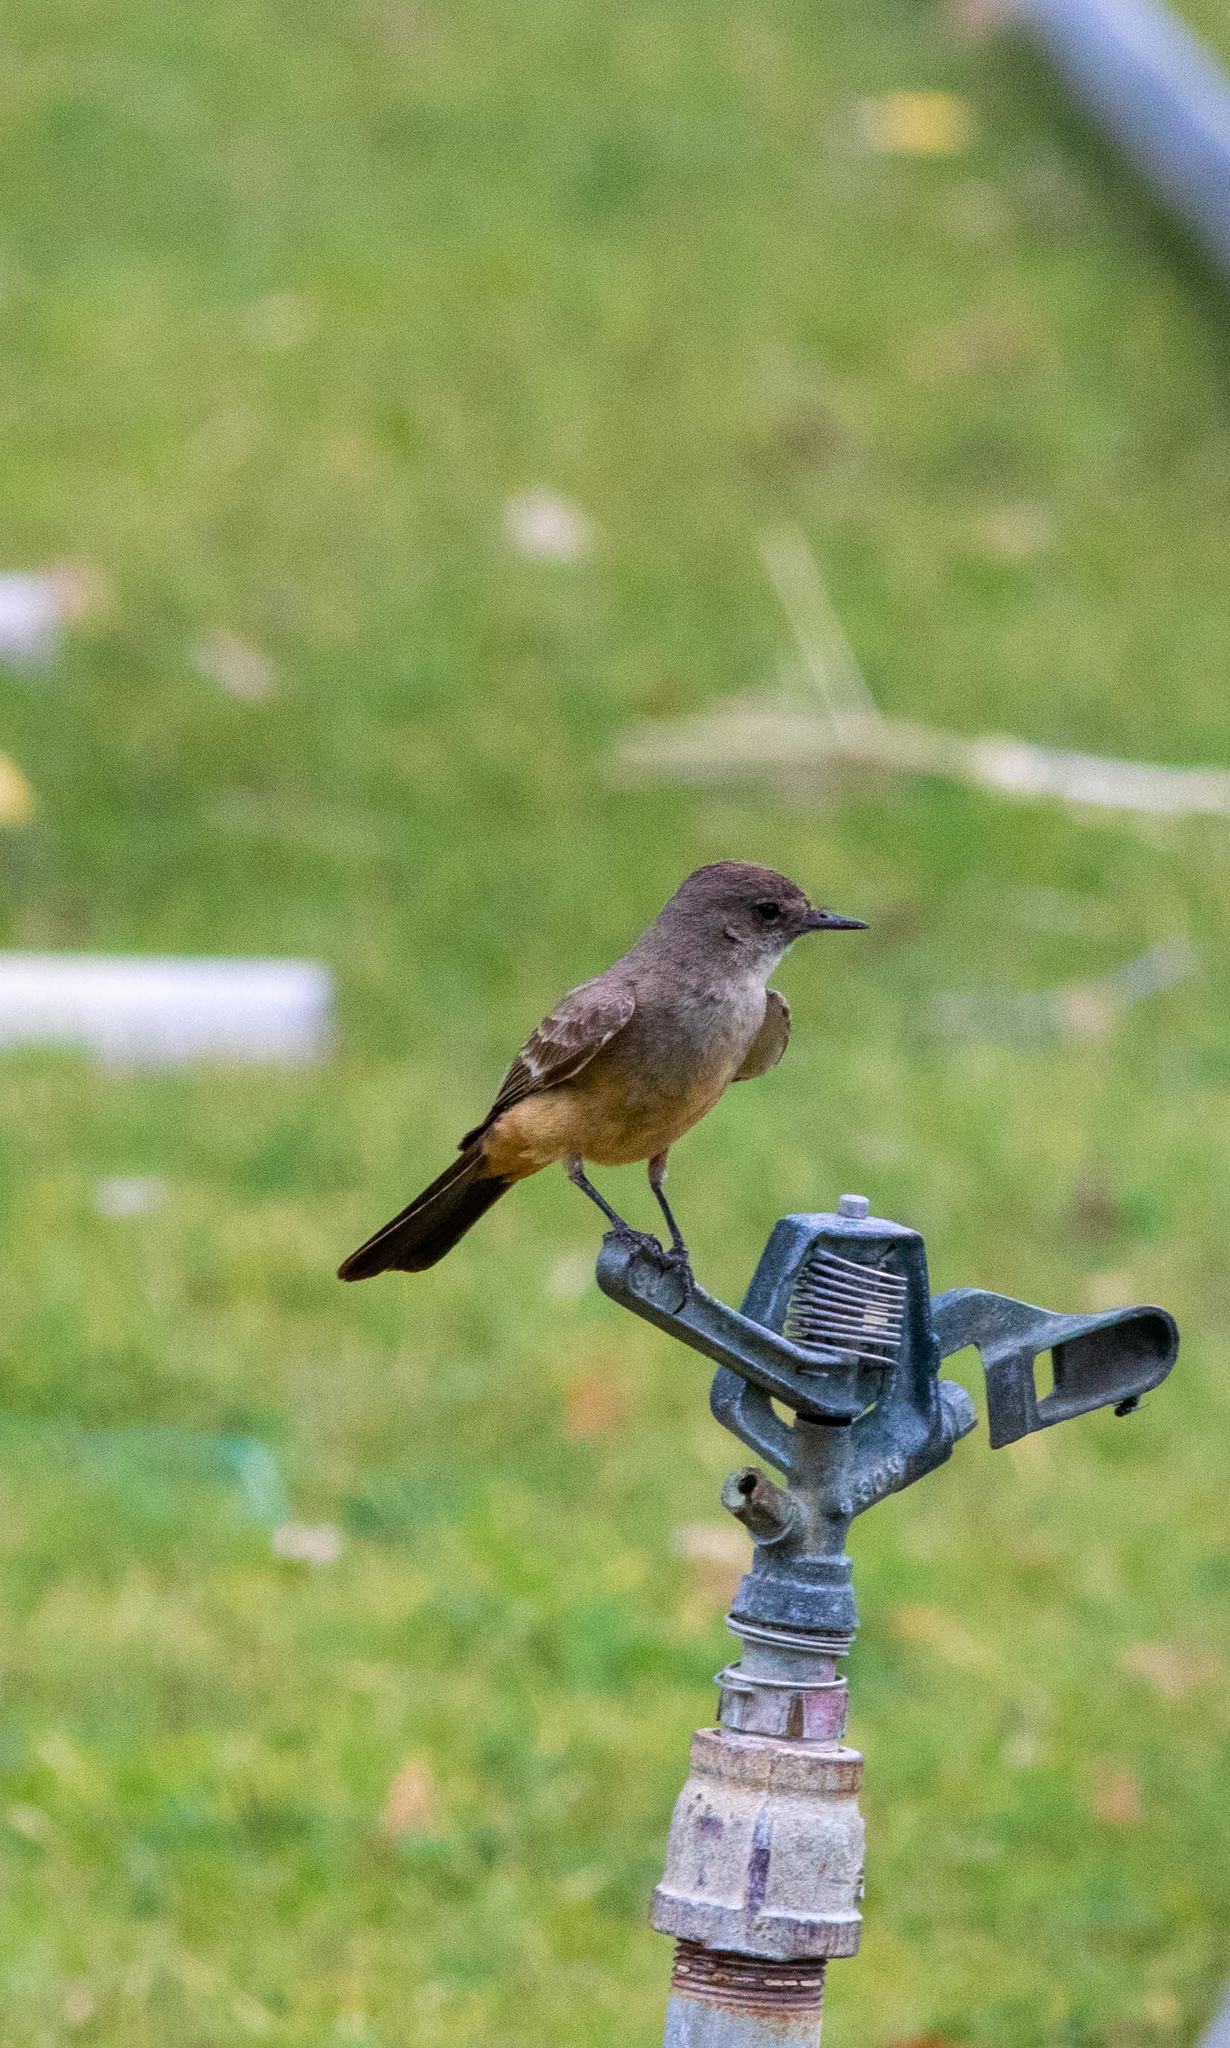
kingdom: Animalia
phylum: Chordata
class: Aves
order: Passeriformes
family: Tyrannidae
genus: Sayornis
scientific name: Sayornis saya
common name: Say's phoebe
